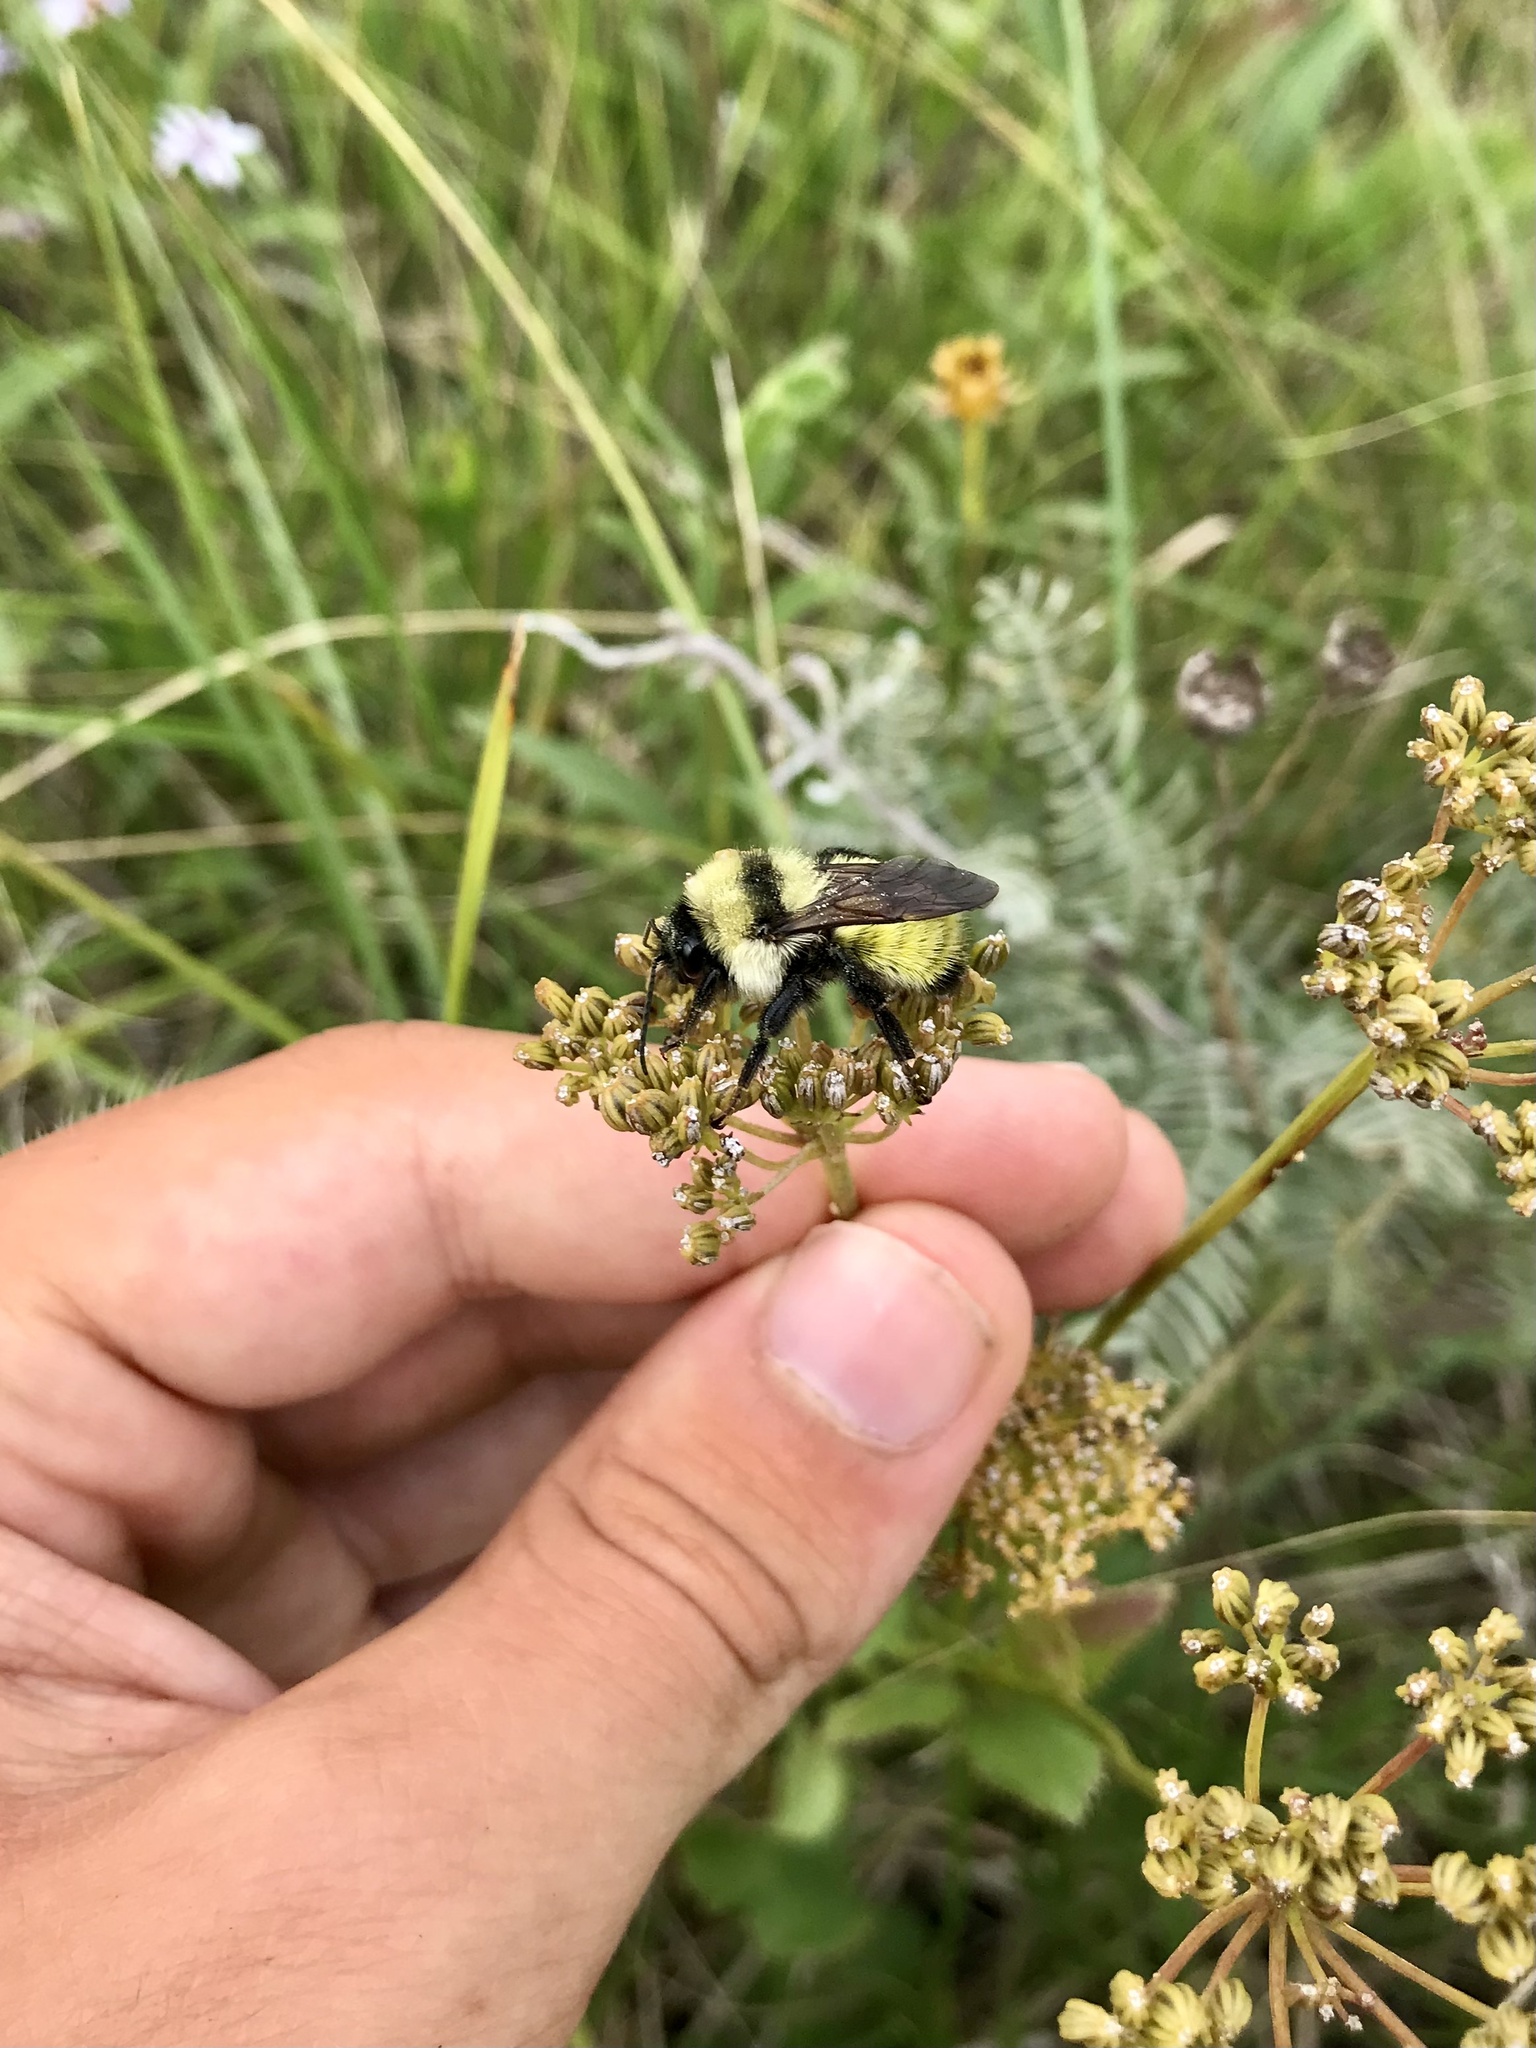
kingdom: Animalia
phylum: Arthropoda
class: Insecta
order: Hymenoptera
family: Apidae
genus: Bombus
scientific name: Bombus fervidus
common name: Yellow bumble bee
